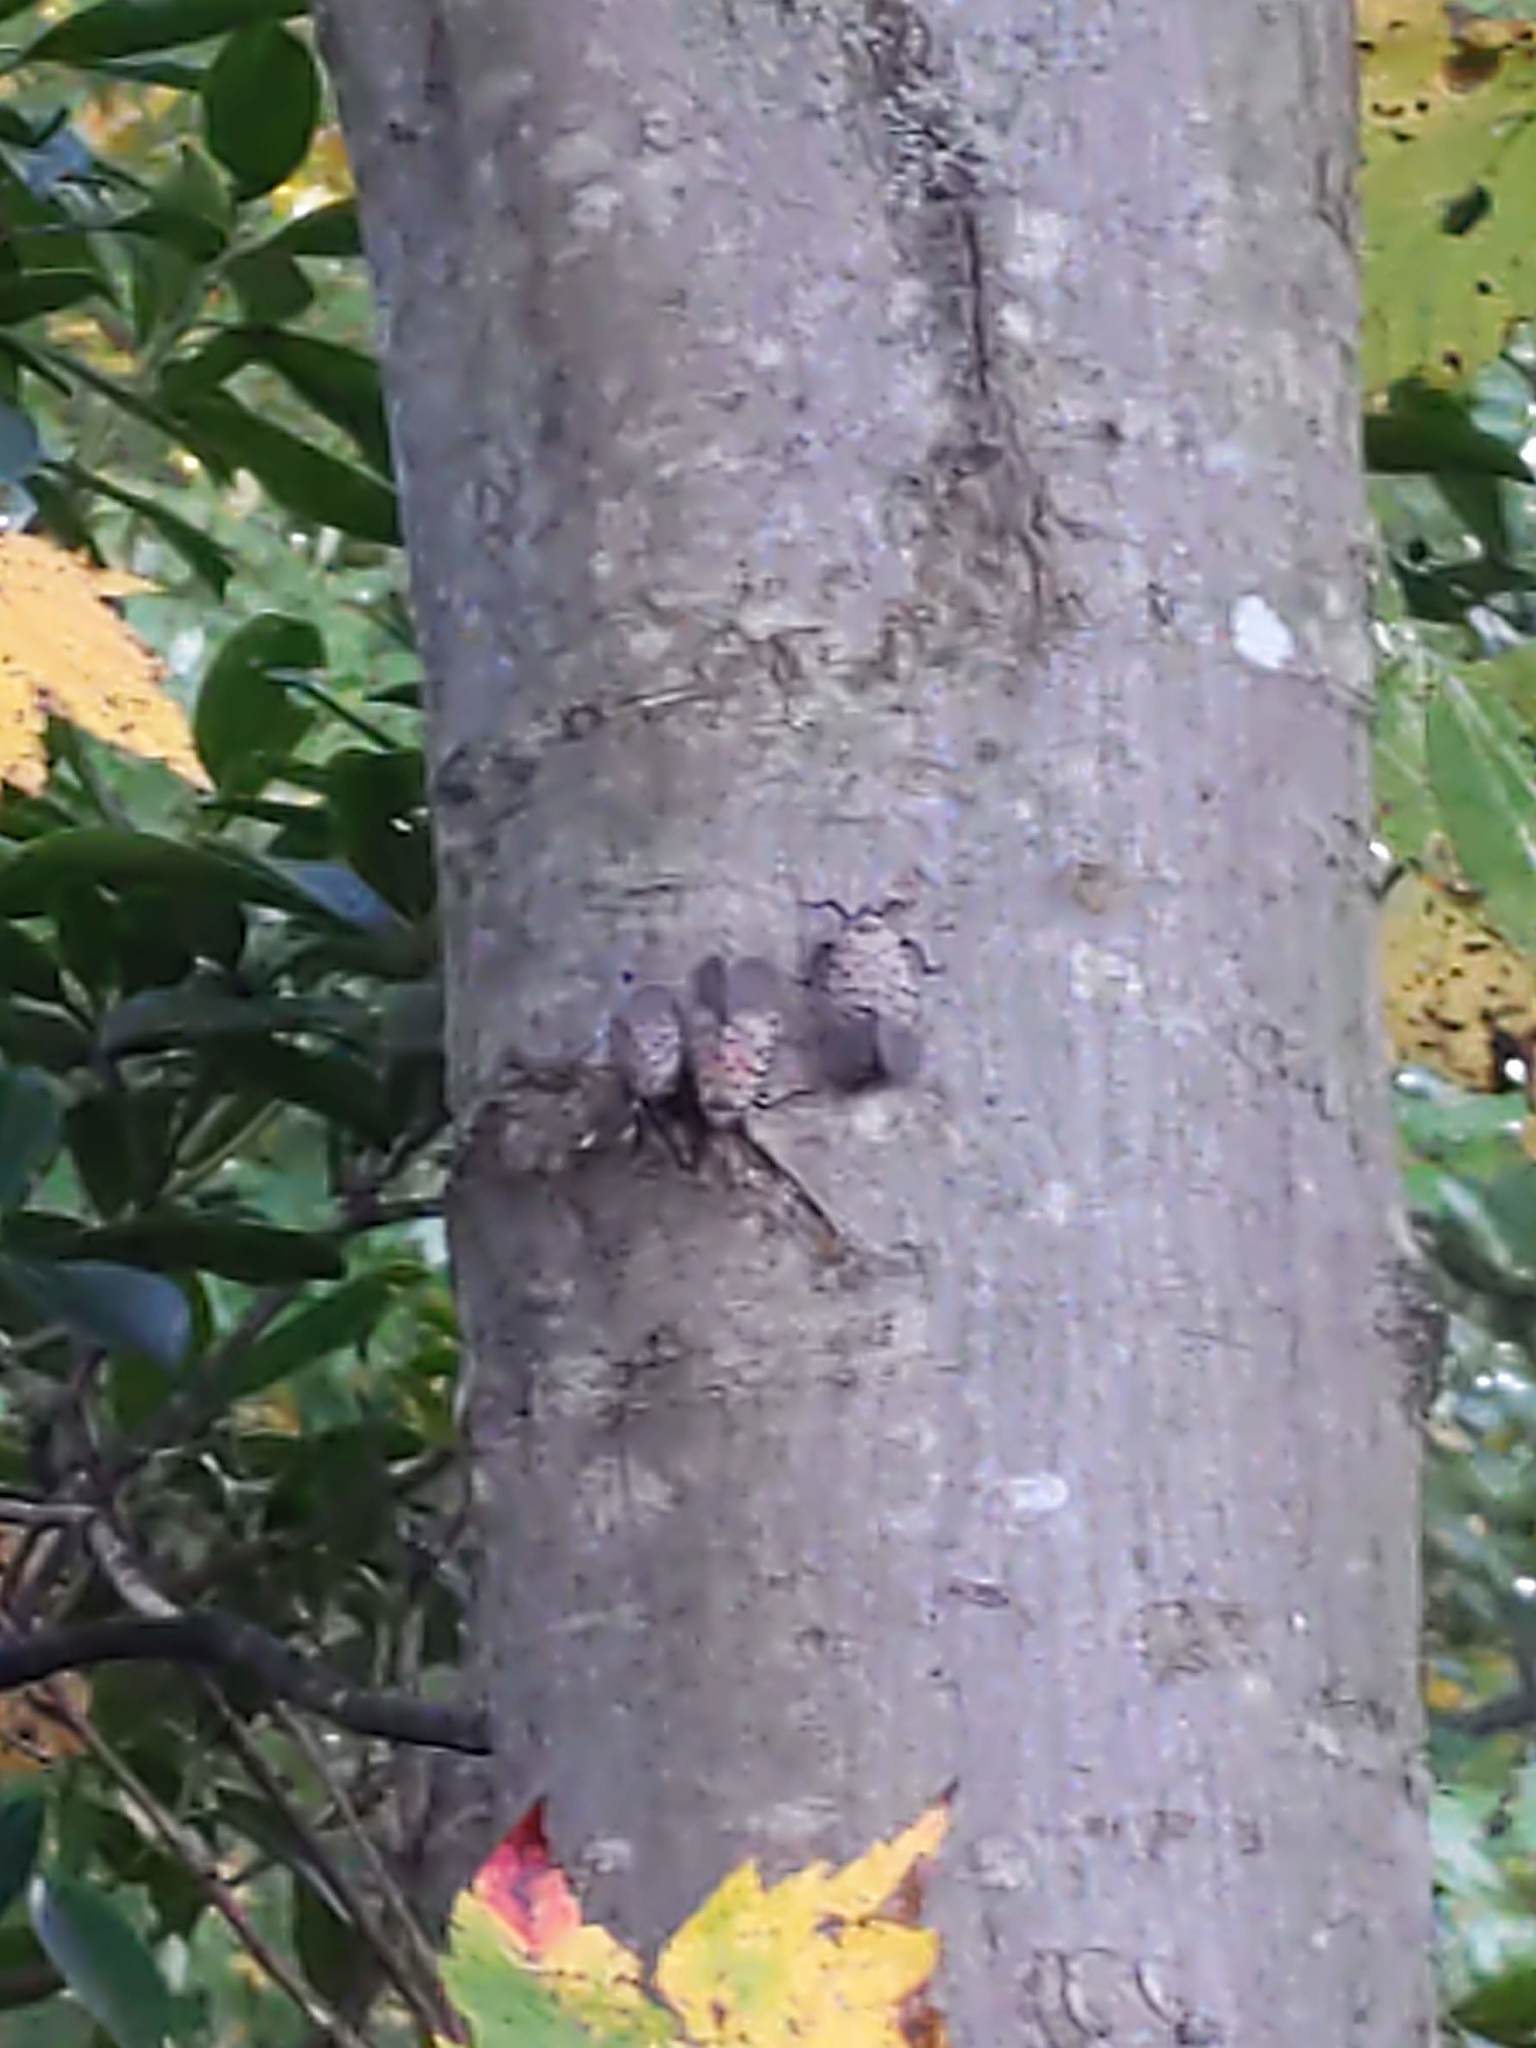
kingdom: Animalia
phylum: Arthropoda
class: Insecta
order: Hemiptera
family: Fulgoridae
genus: Lycorma
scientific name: Lycorma delicatula
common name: Spotted lanternfly
